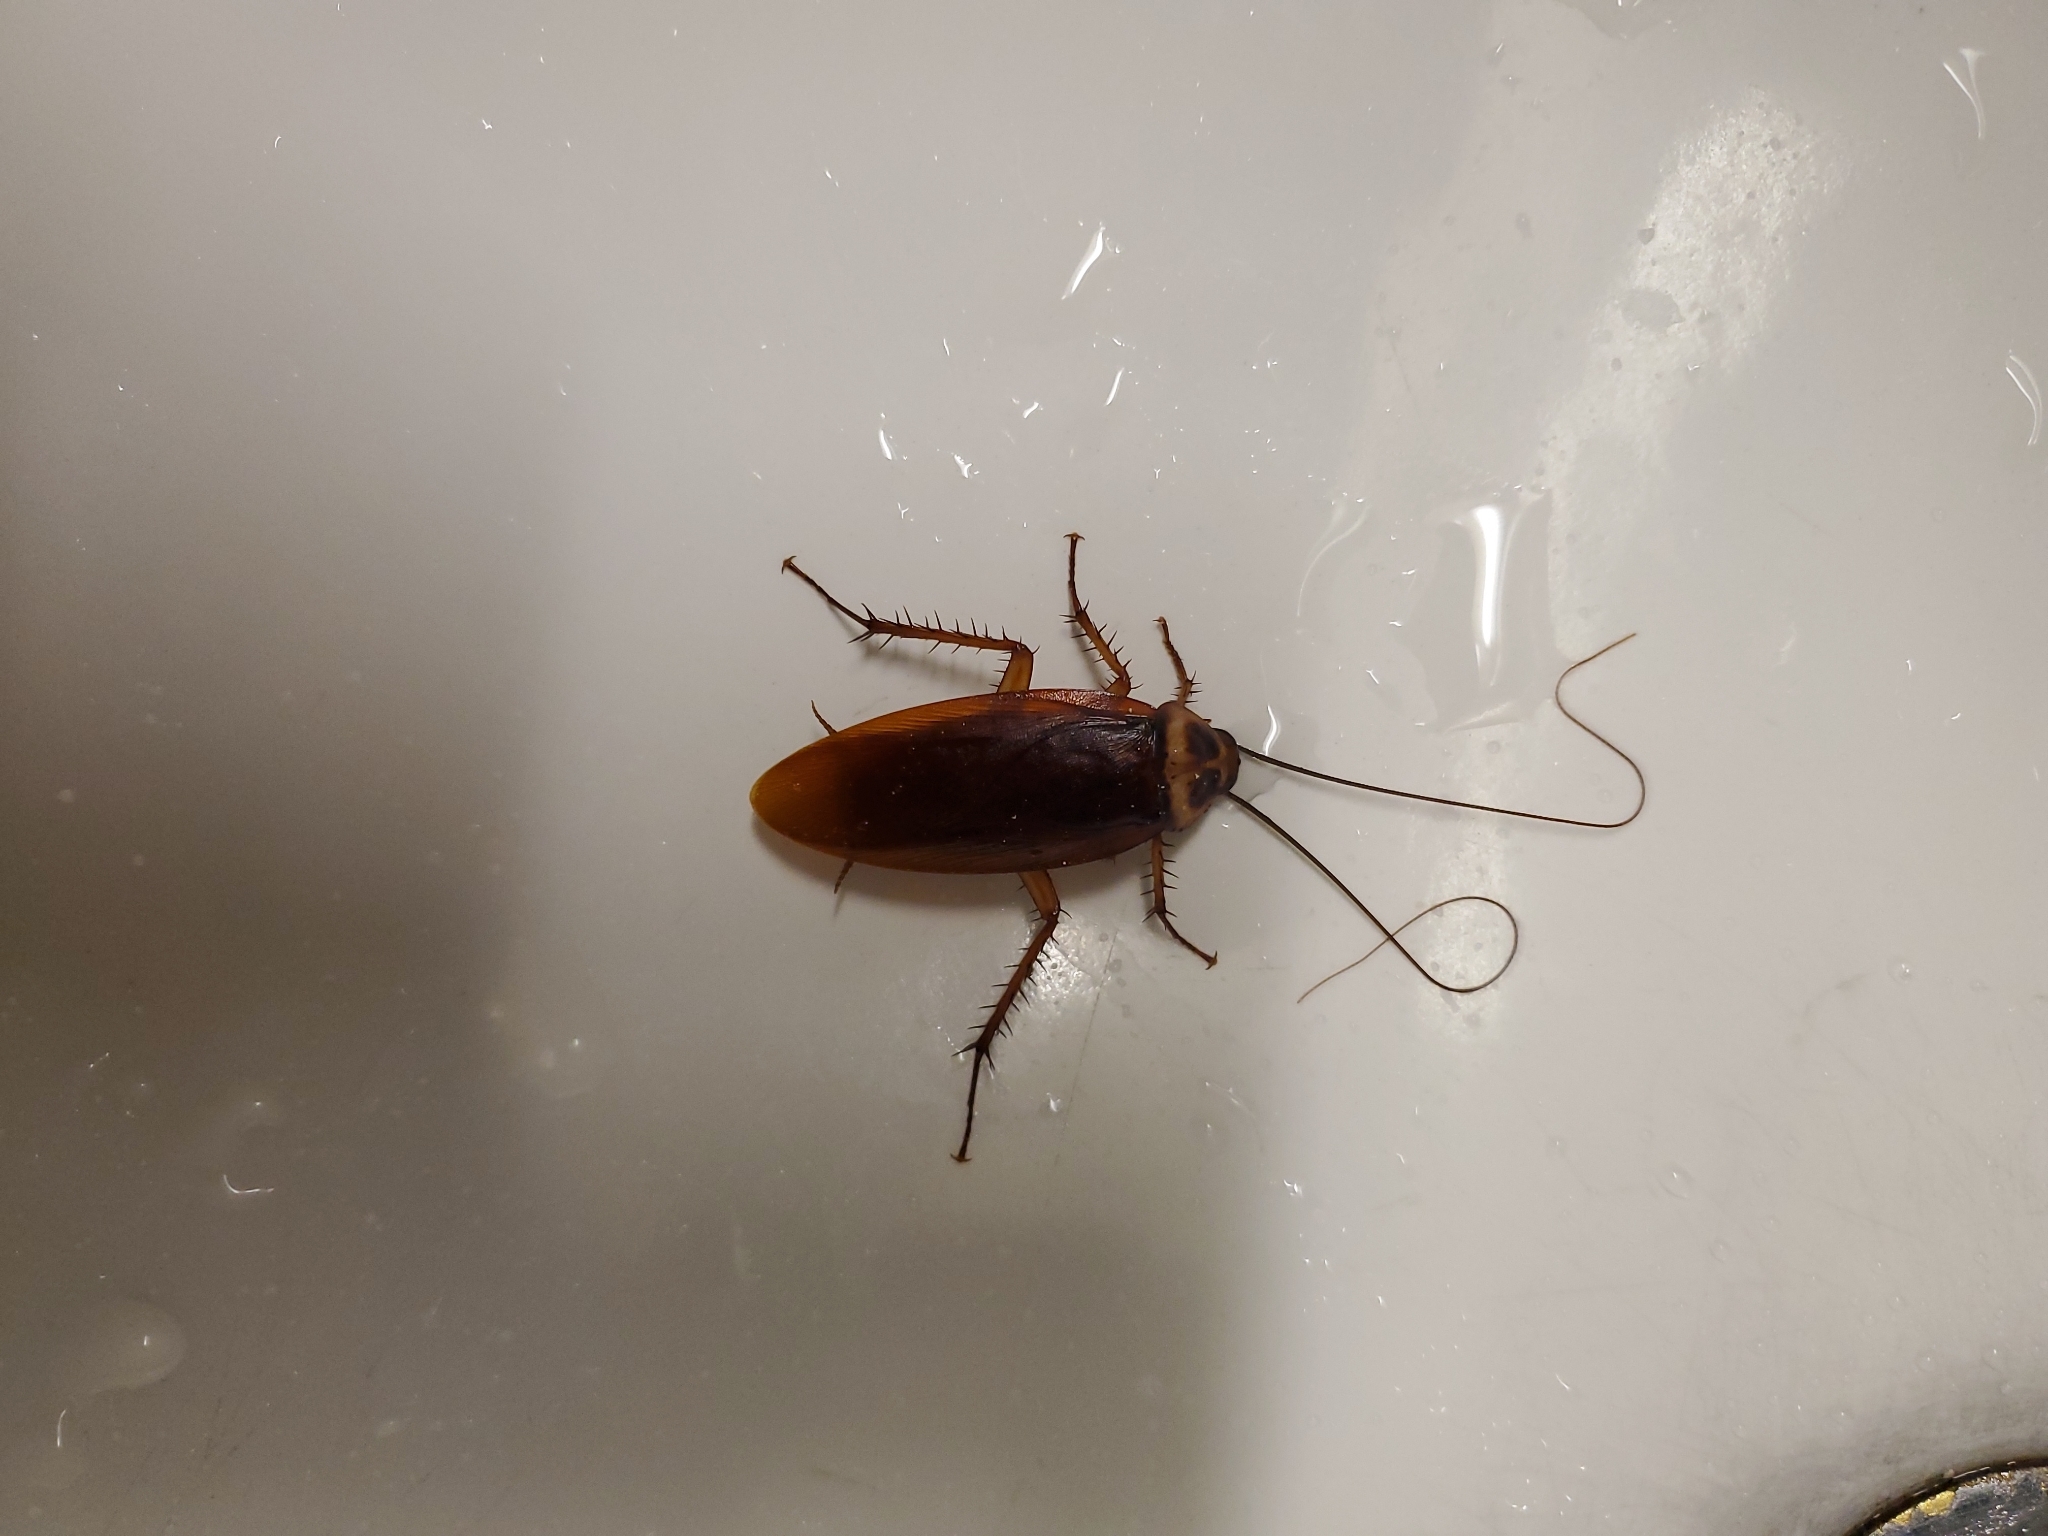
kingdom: Animalia
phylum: Arthropoda
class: Insecta
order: Blattodea
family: Blattidae
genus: Periplaneta
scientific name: Periplaneta americana
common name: American cockroach
